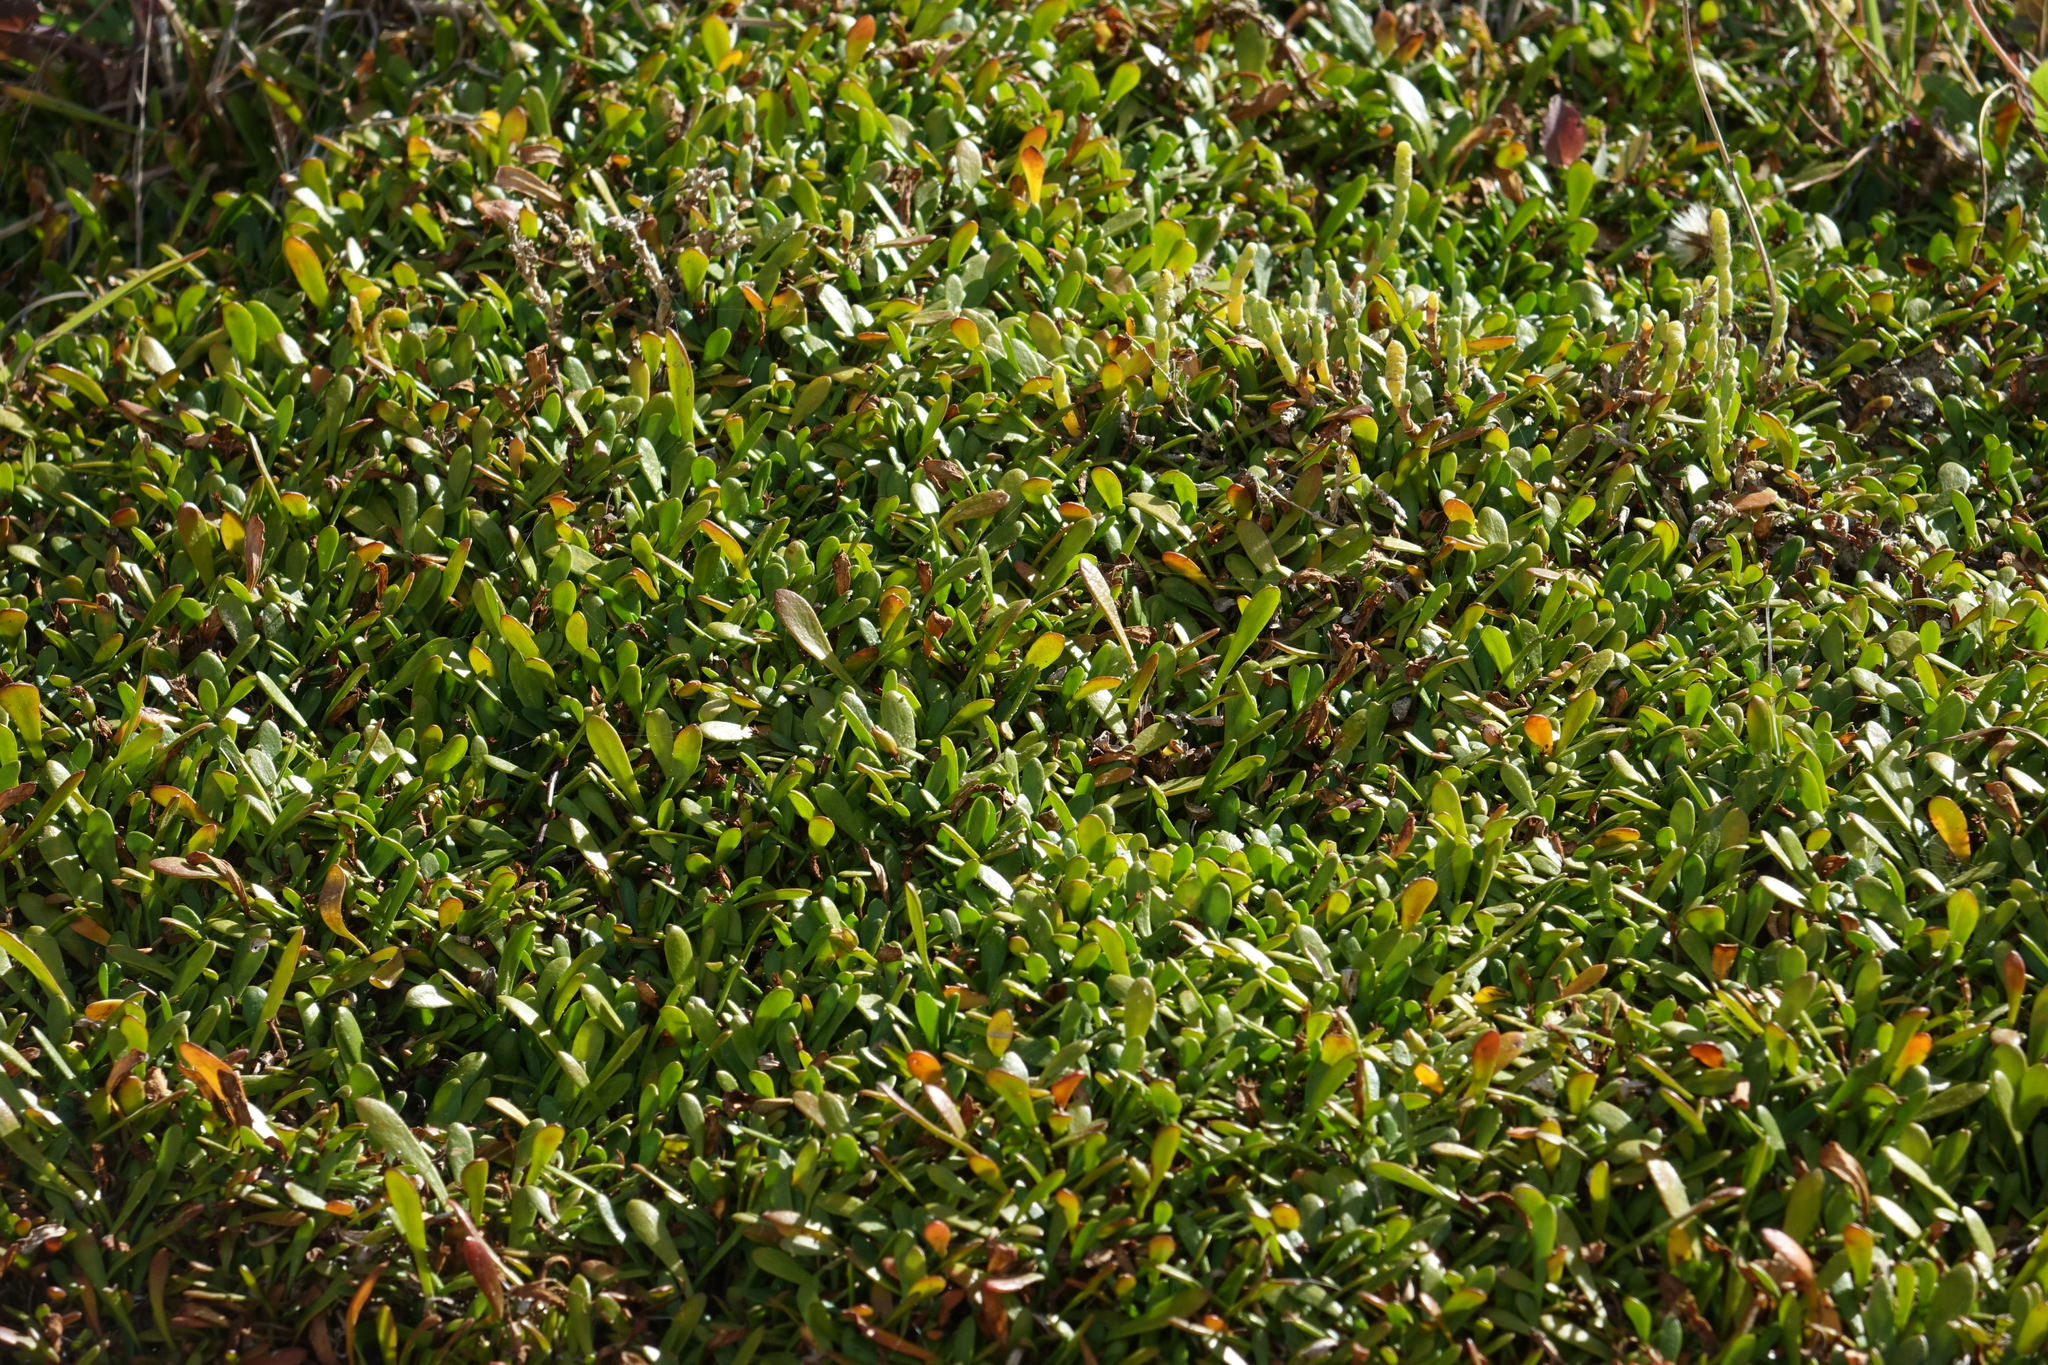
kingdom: Plantae
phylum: Tracheophyta
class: Magnoliopsida
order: Asterales
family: Goodeniaceae
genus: Goodenia
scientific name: Goodenia radicans
